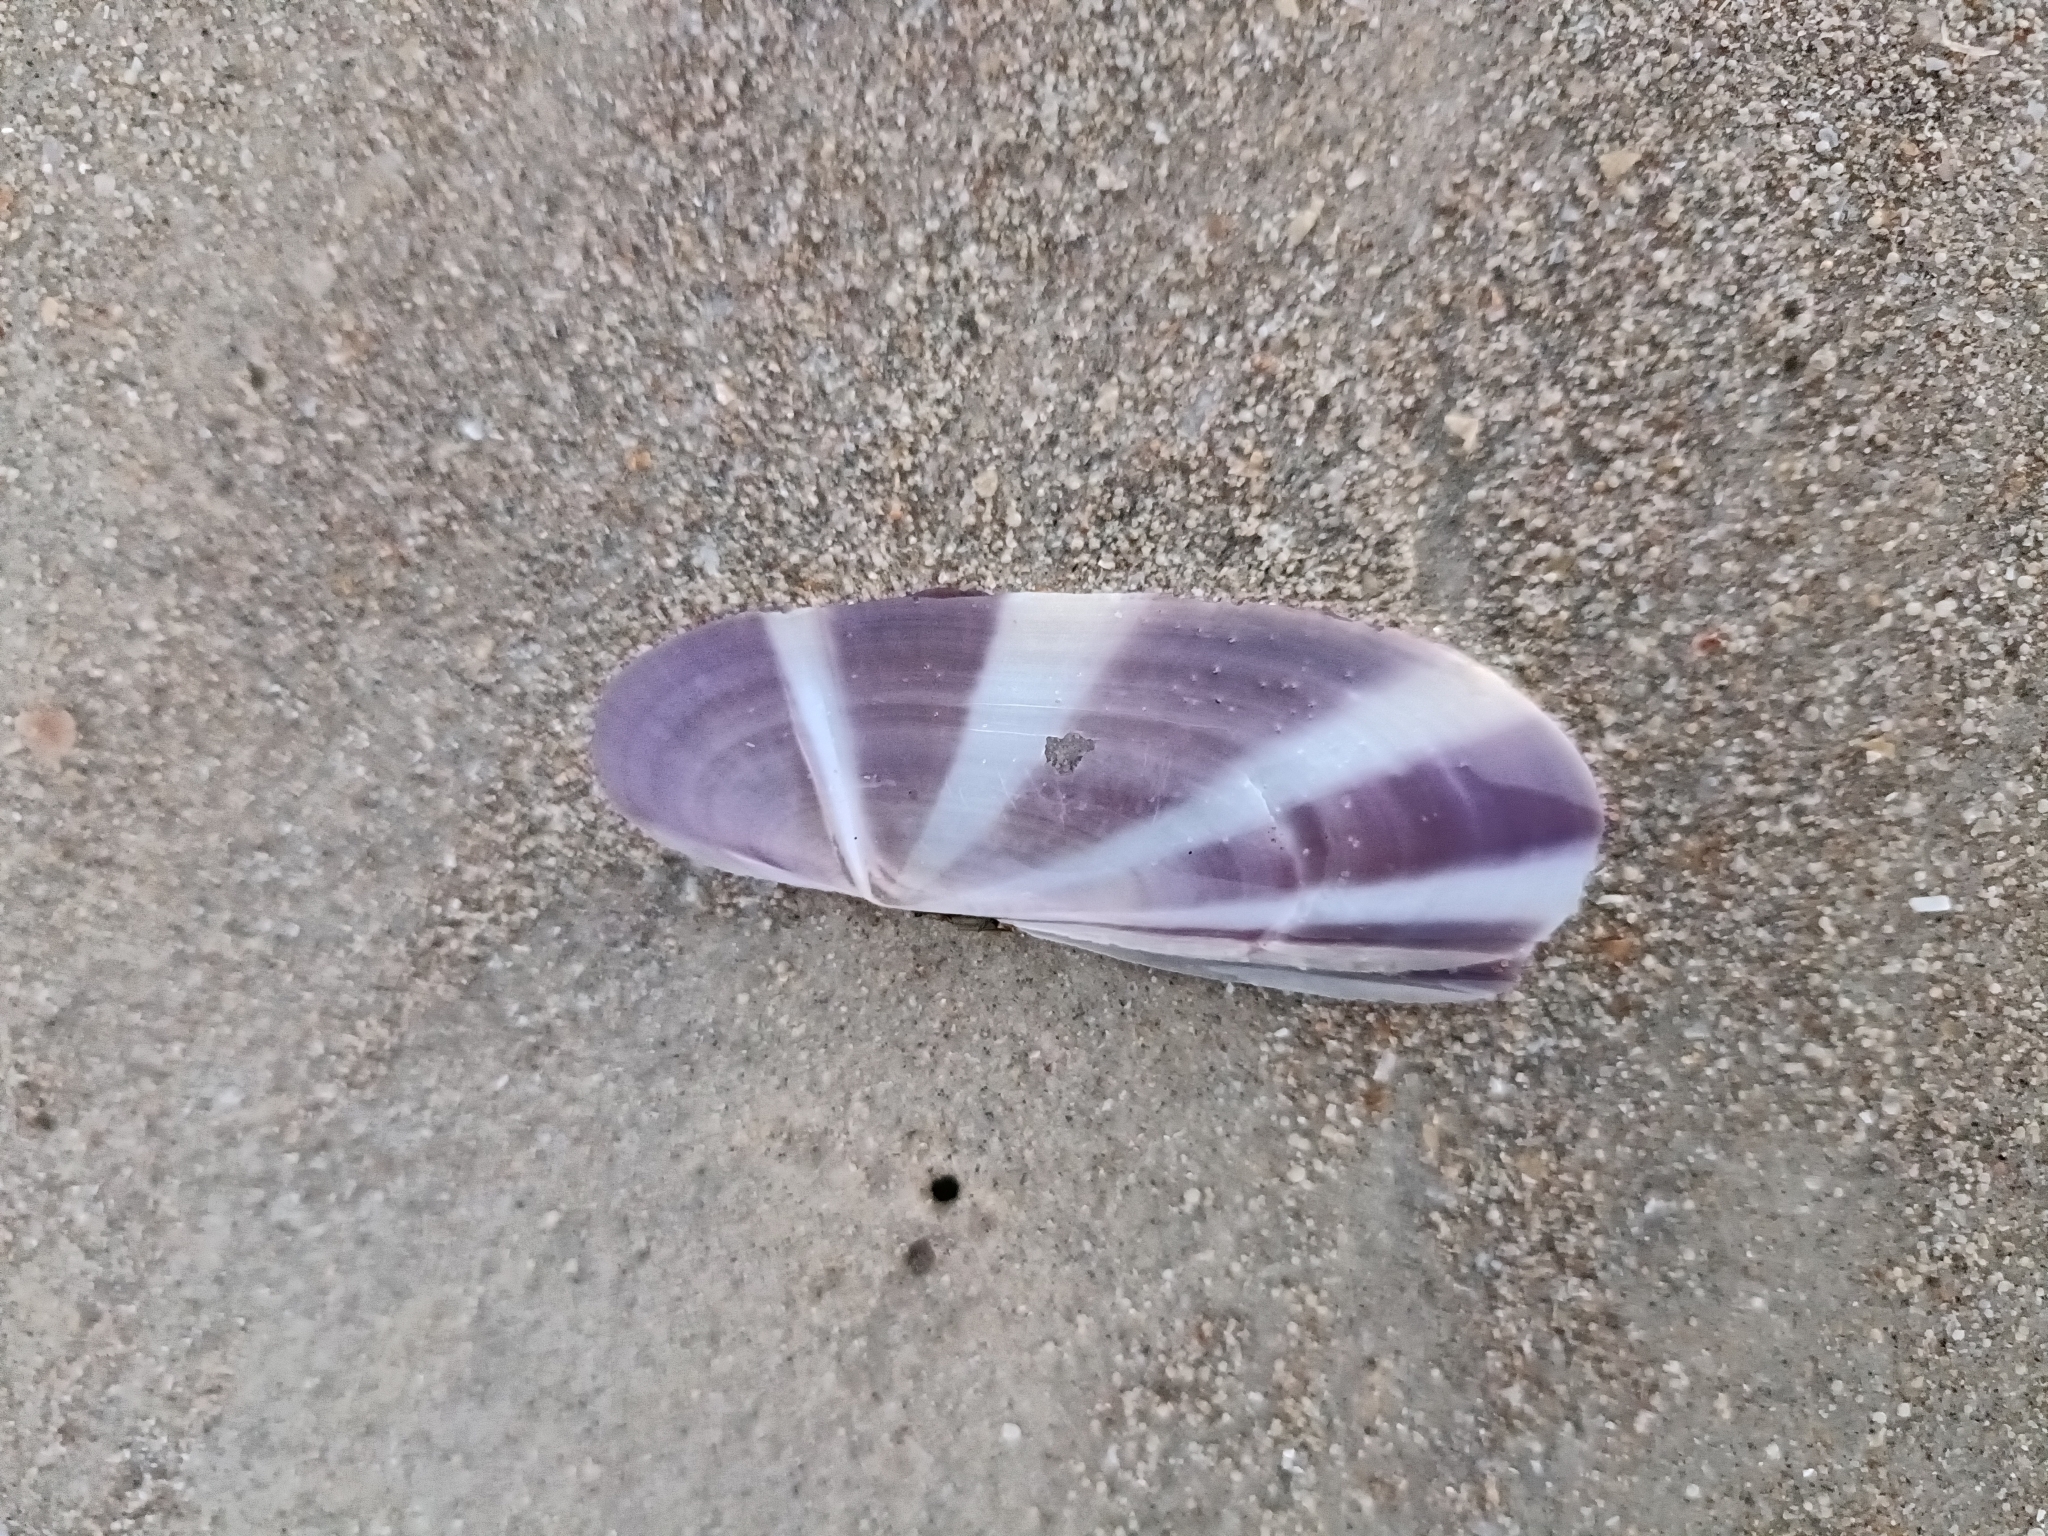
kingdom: Animalia
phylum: Mollusca
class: Bivalvia
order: Adapedonta
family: Pharidae
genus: Siliqua
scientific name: Siliqua radiata
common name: Sunset razor clam
